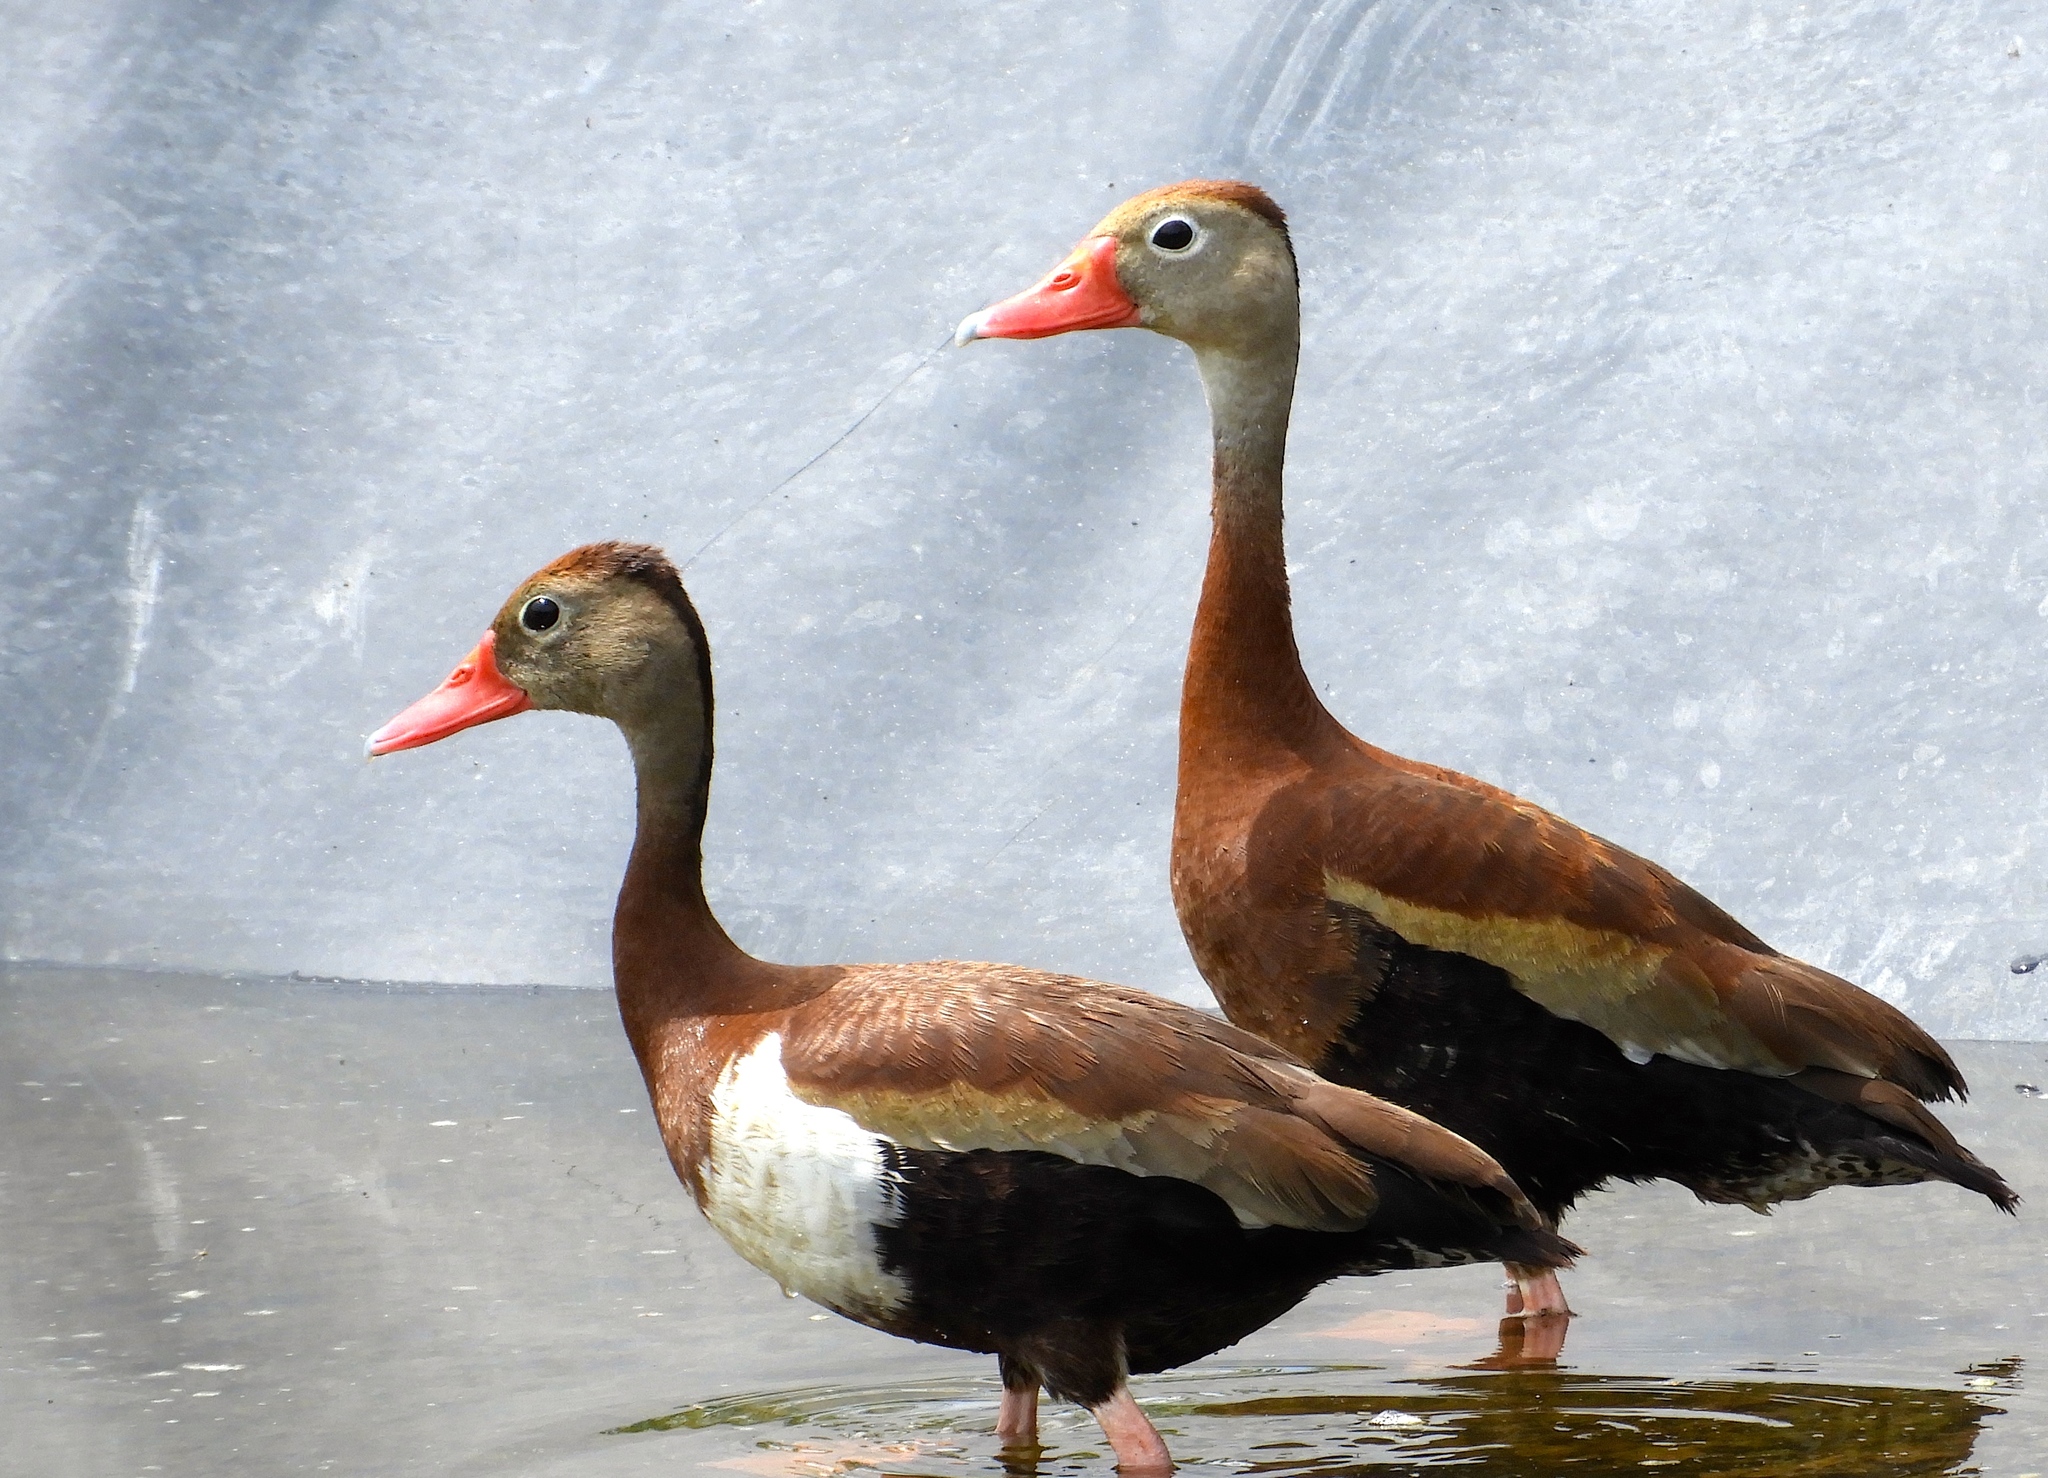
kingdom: Animalia
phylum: Chordata
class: Aves
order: Anseriformes
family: Anatidae
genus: Dendrocygna
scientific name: Dendrocygna autumnalis
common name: Black-bellied whistling duck
